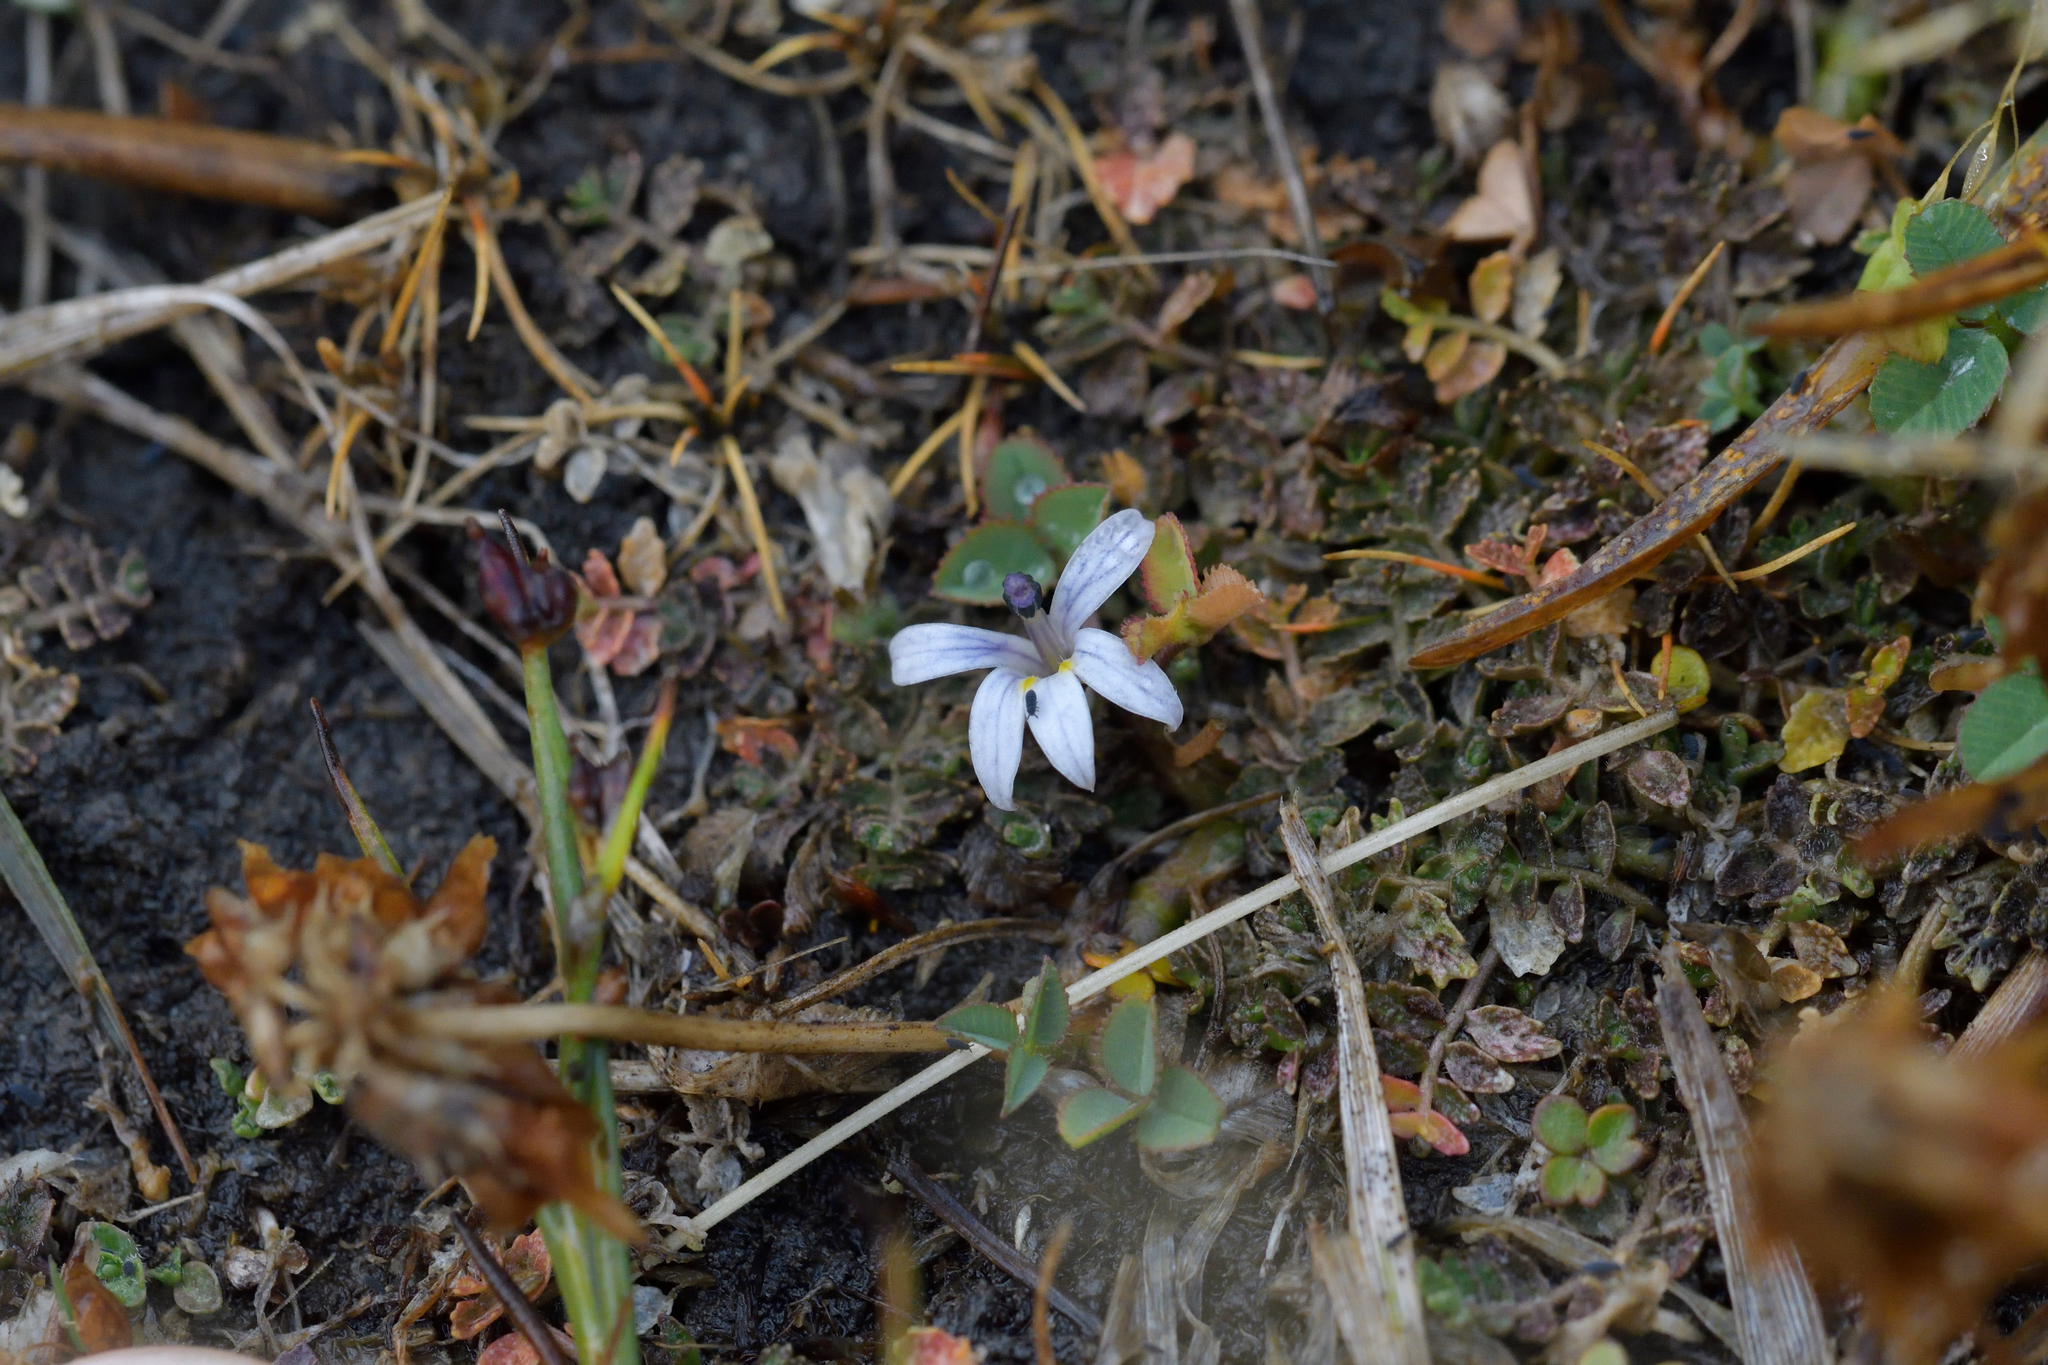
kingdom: Plantae
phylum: Tracheophyta
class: Magnoliopsida
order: Asterales
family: Campanulaceae
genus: Lobelia
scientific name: Lobelia perpusilla
